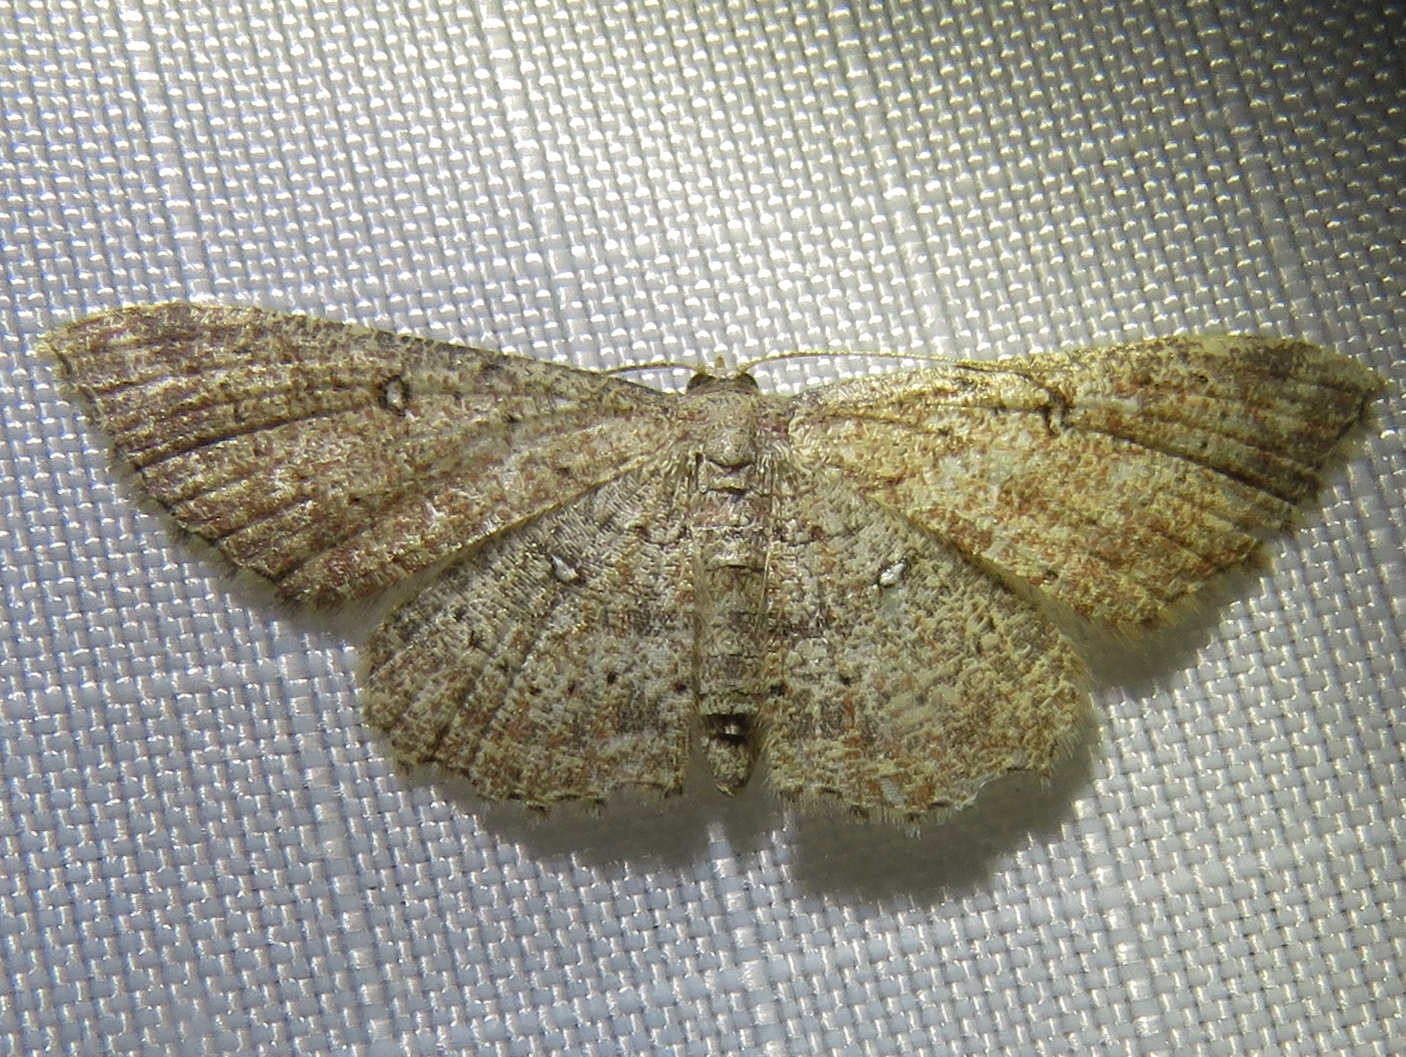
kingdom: Animalia
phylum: Arthropoda
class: Insecta
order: Lepidoptera
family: Geometridae
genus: Cyclophora
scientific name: Cyclophora nanaria
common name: Cankerworm
